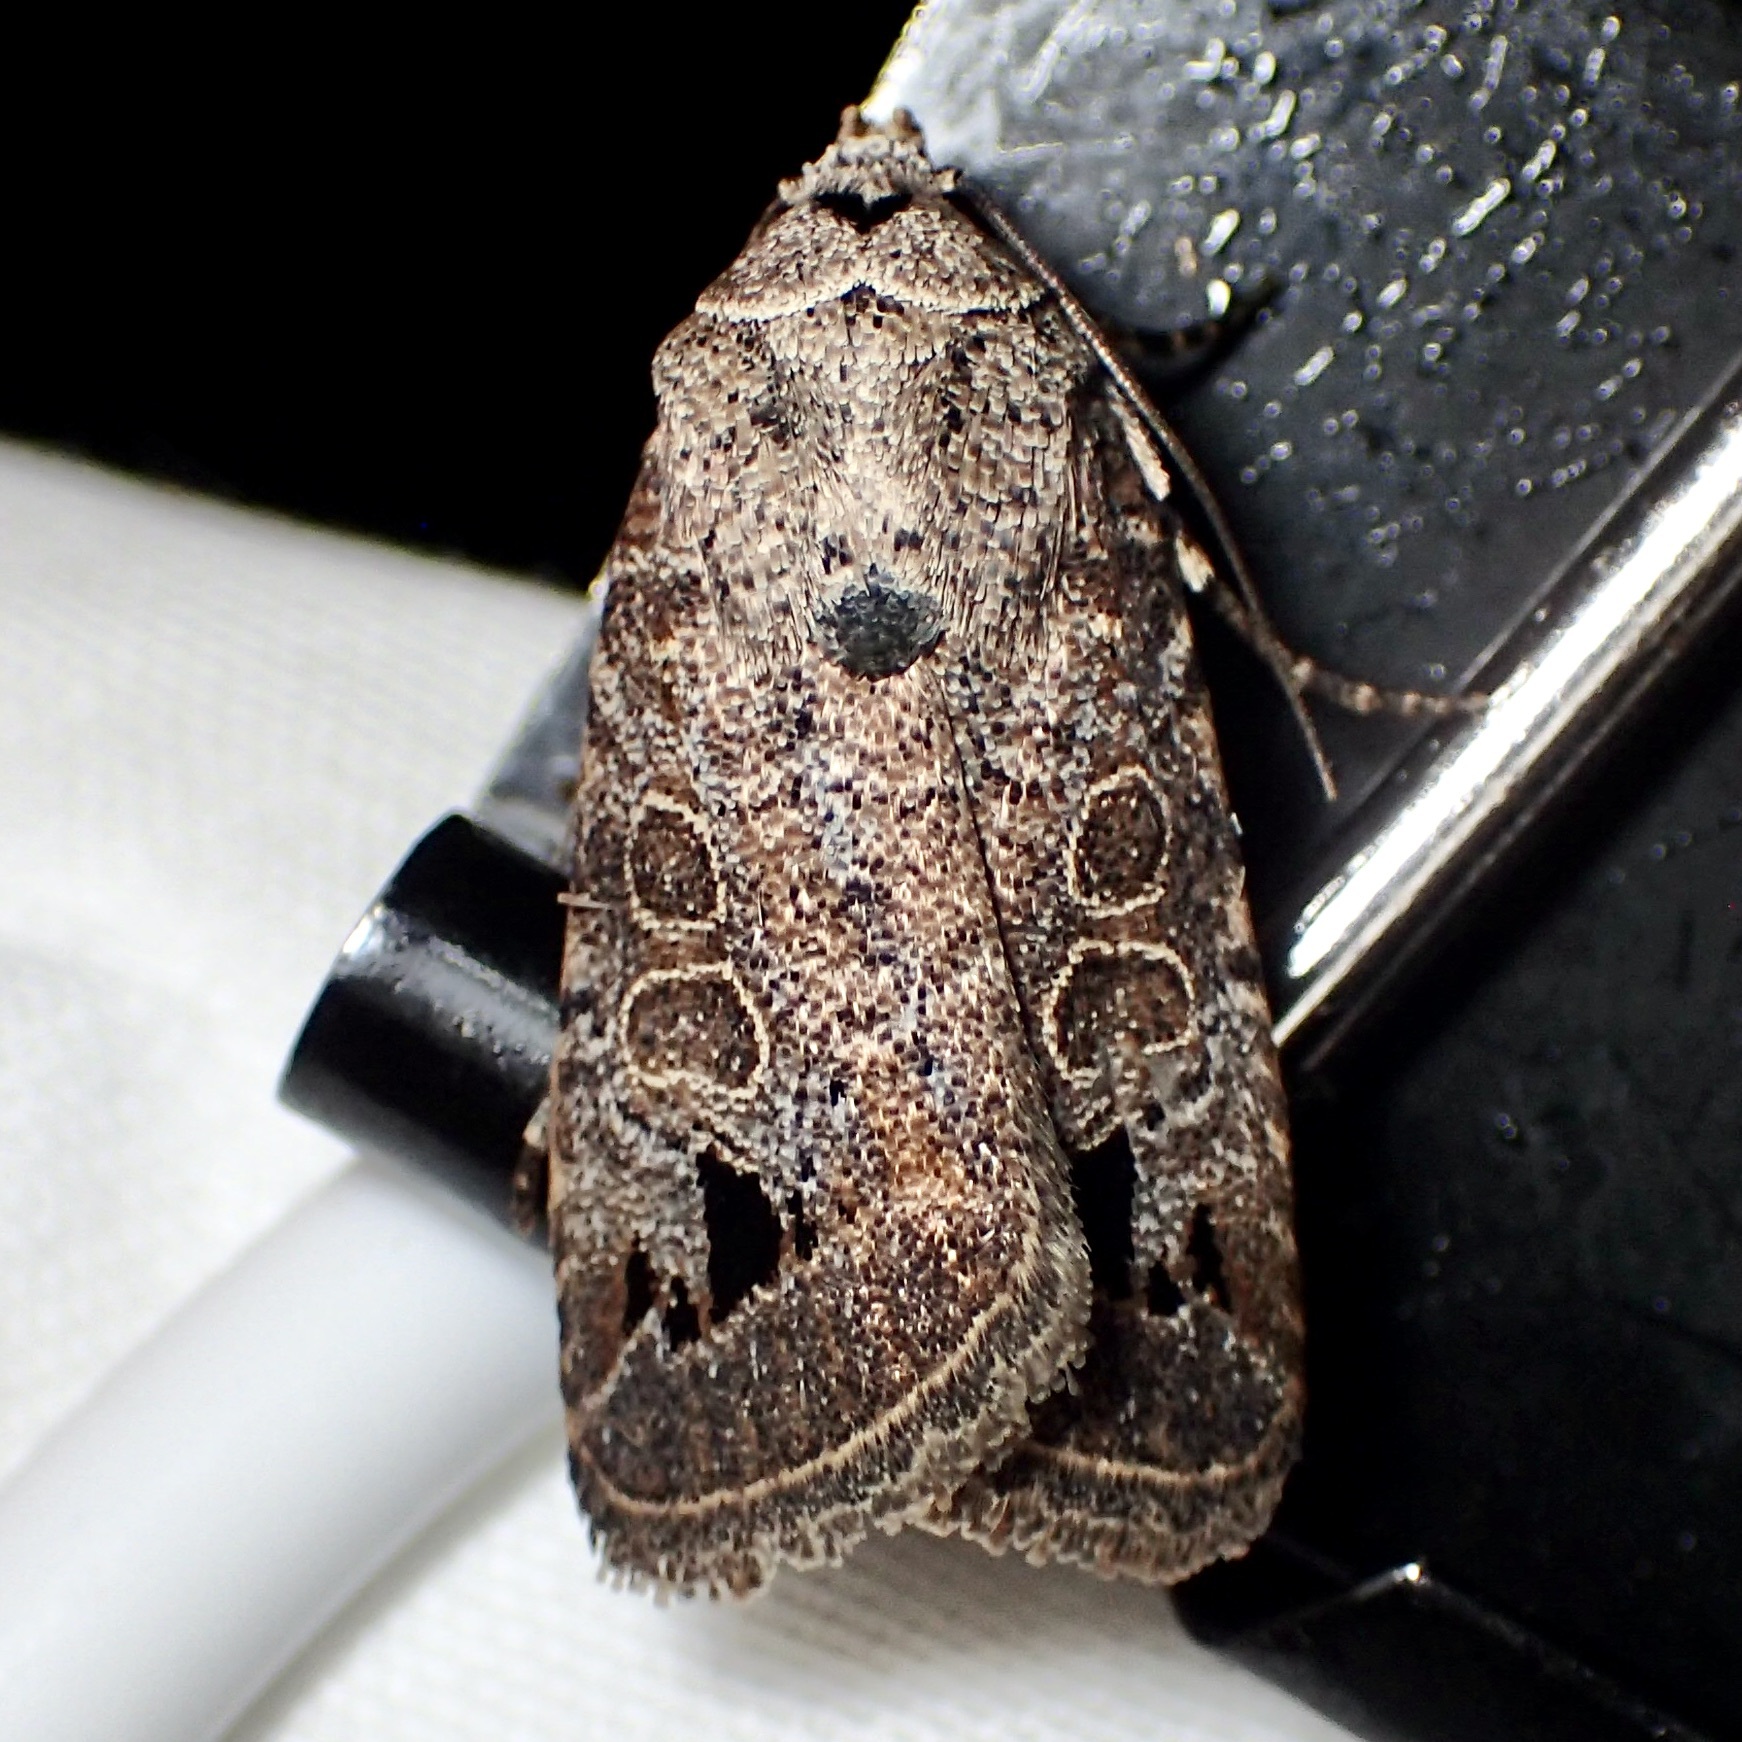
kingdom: Animalia
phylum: Arthropoda
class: Insecta
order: Lepidoptera
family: Noctuidae
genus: Anorthodes
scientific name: Anorthodes triquetra
